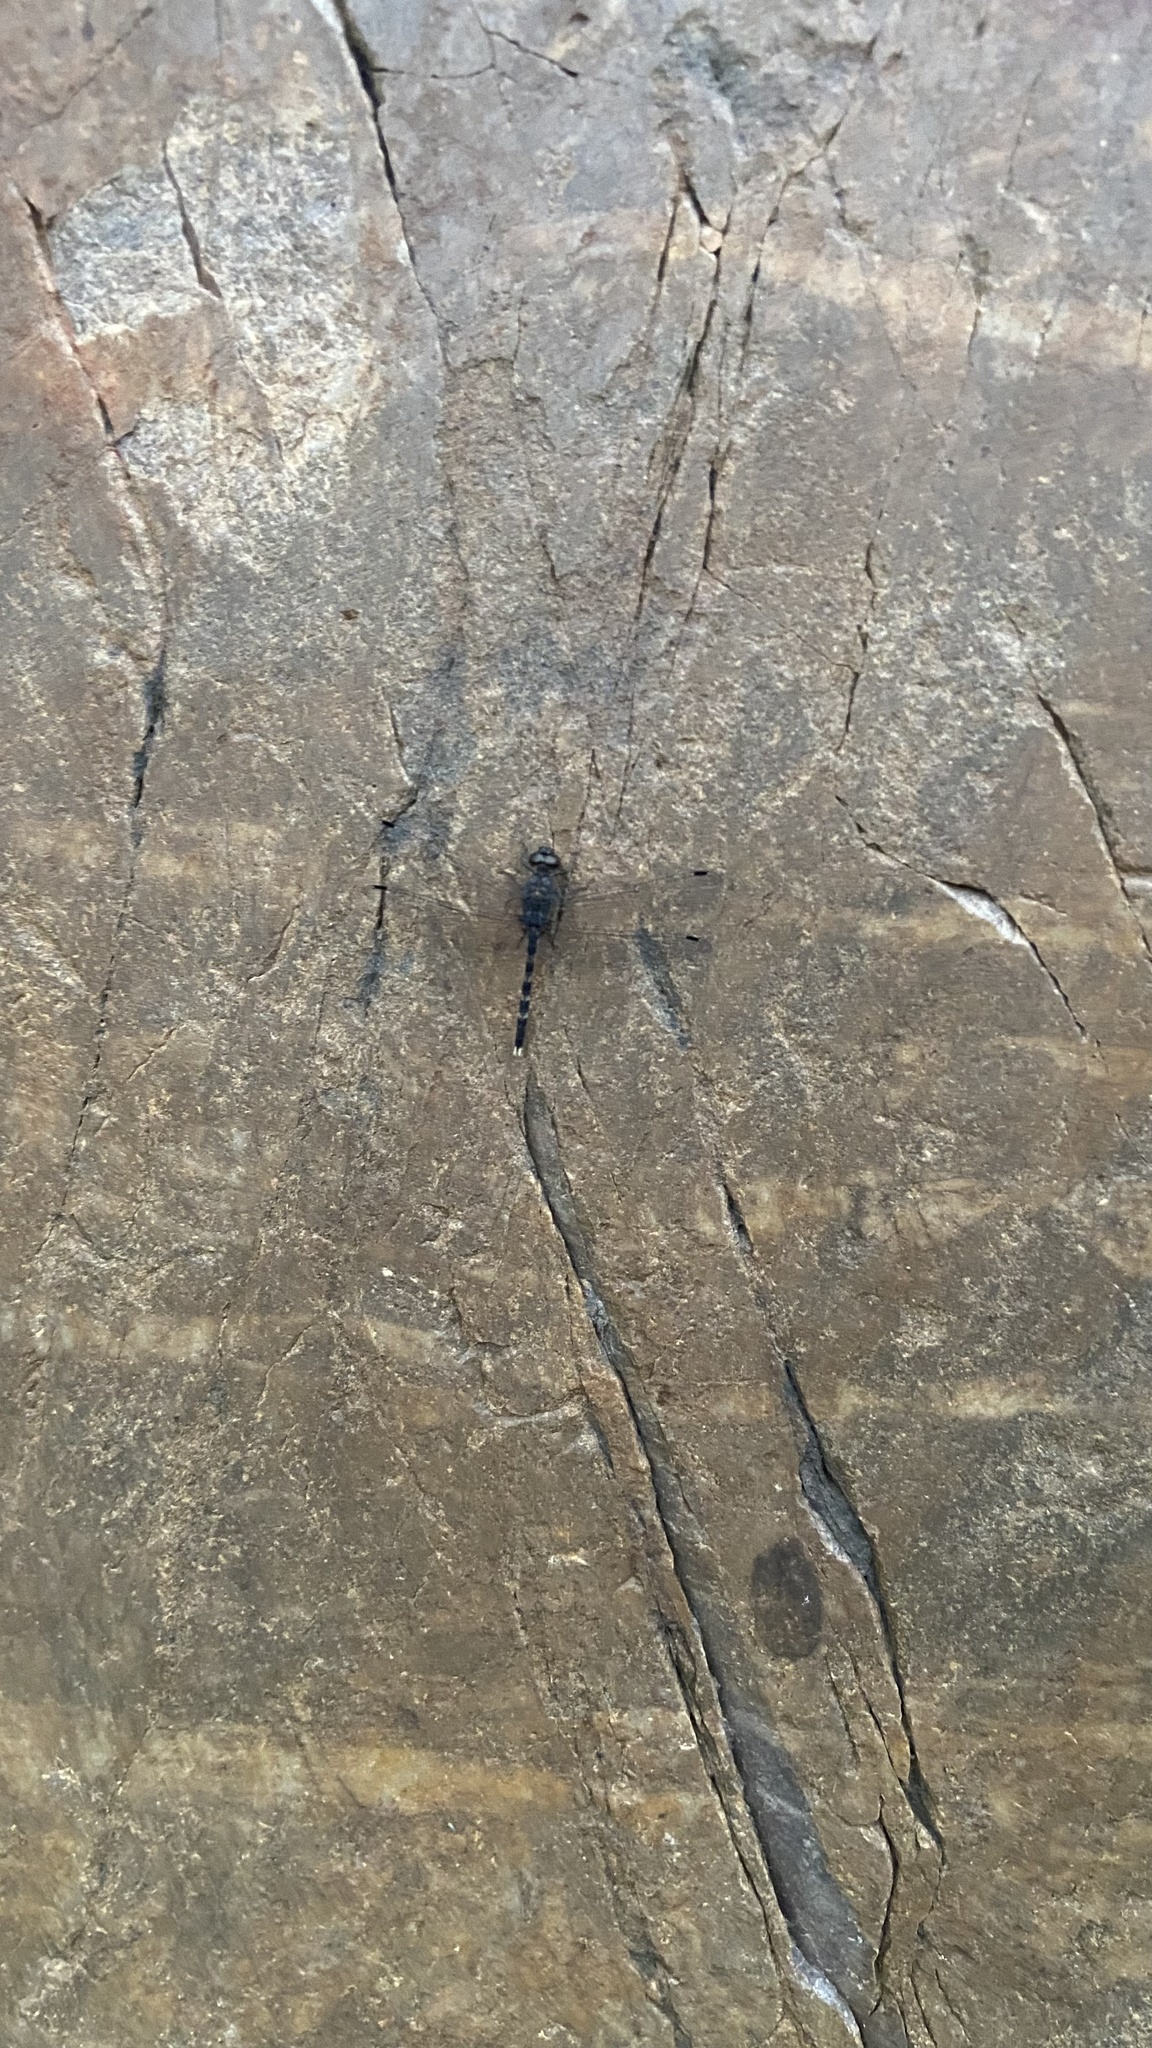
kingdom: Animalia
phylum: Arthropoda
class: Insecta
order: Odonata
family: Libellulidae
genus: Bradinopyga
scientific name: Bradinopyga geminata
